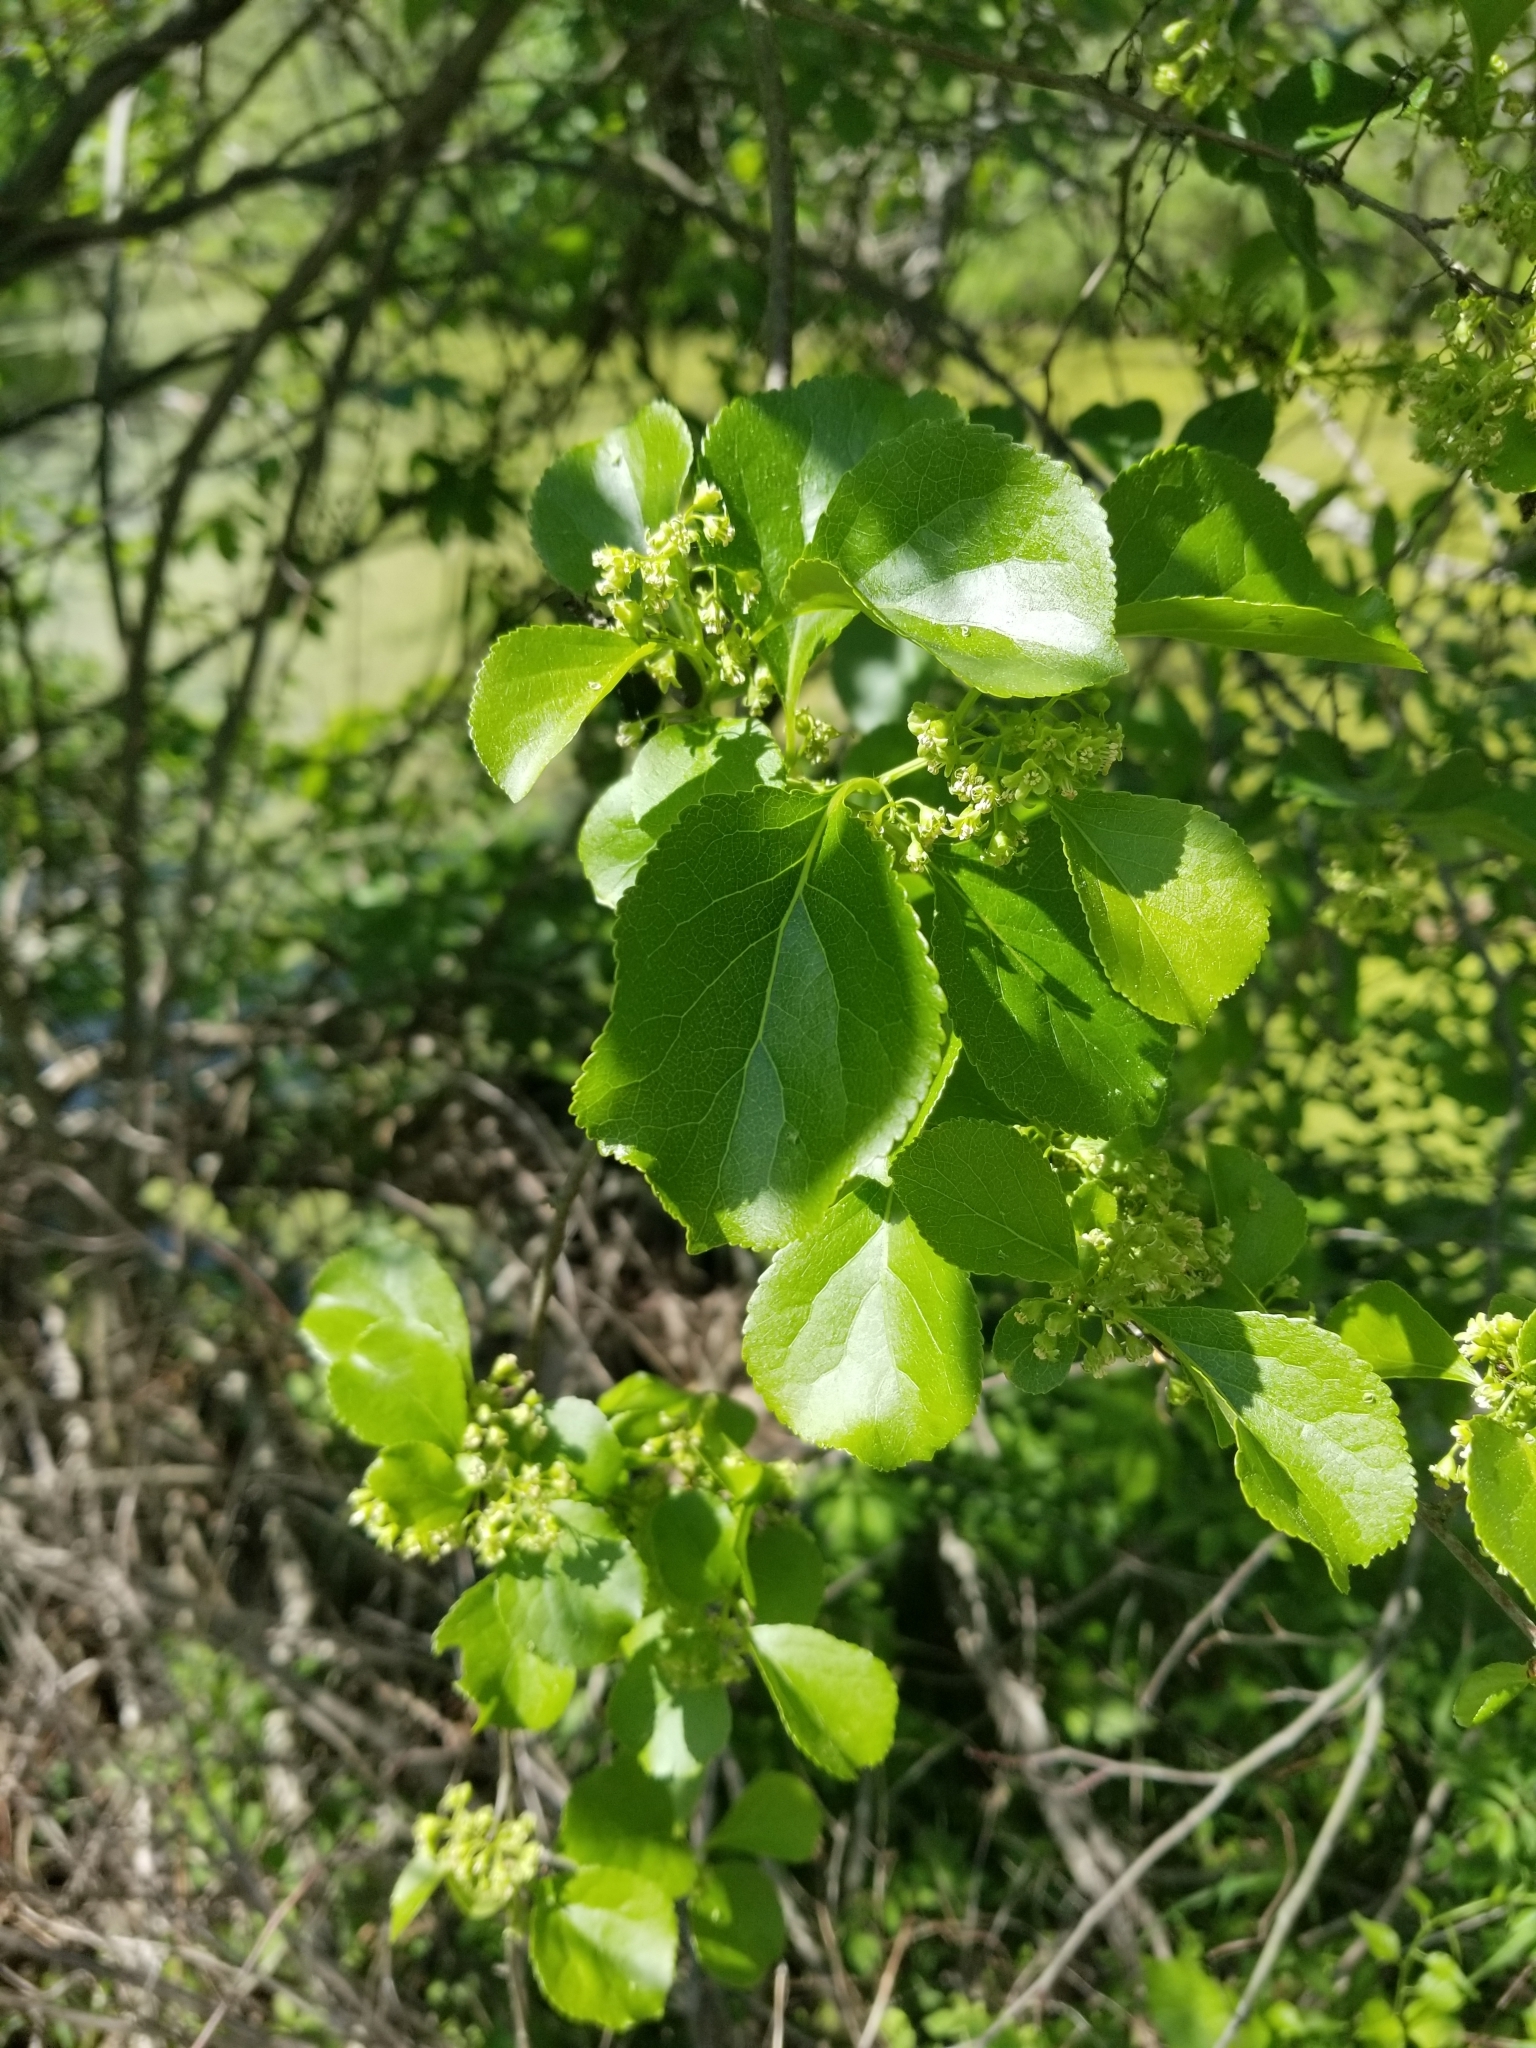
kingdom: Plantae
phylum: Tracheophyta
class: Magnoliopsida
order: Celastrales
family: Celastraceae
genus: Celastrus
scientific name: Celastrus orbiculatus
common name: Oriental bittersweet
